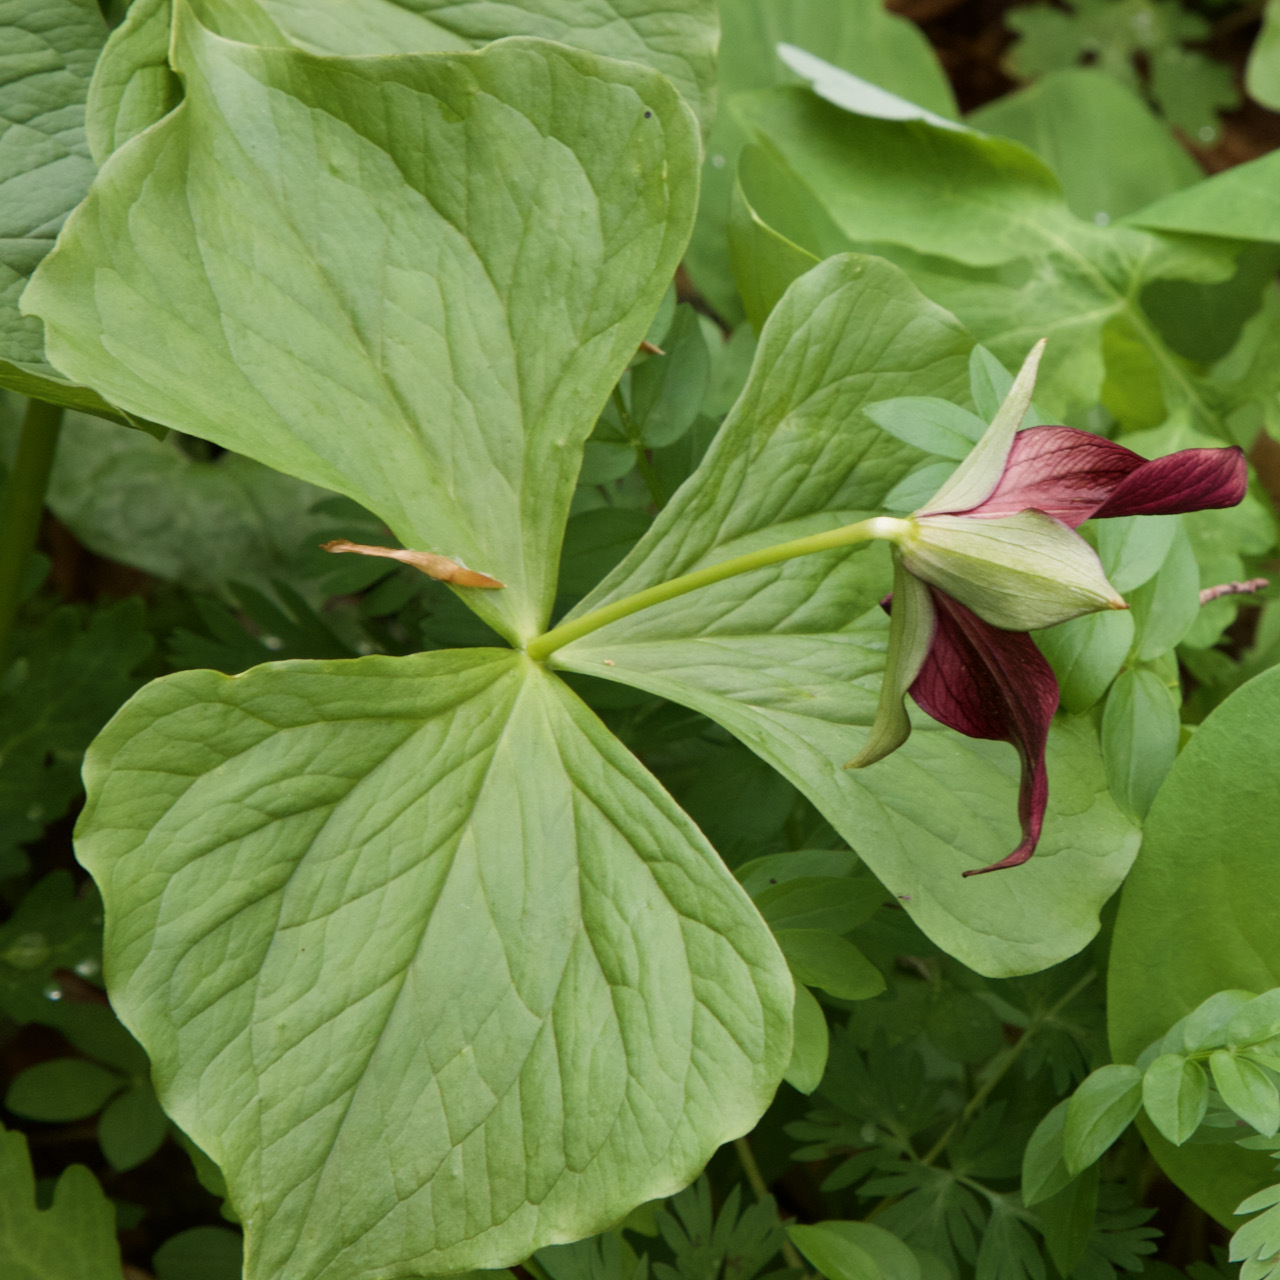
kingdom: Plantae
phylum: Tracheophyta
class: Liliopsida
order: Liliales
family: Melanthiaceae
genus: Trillium
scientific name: Trillium erectum
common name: Purple trillium
